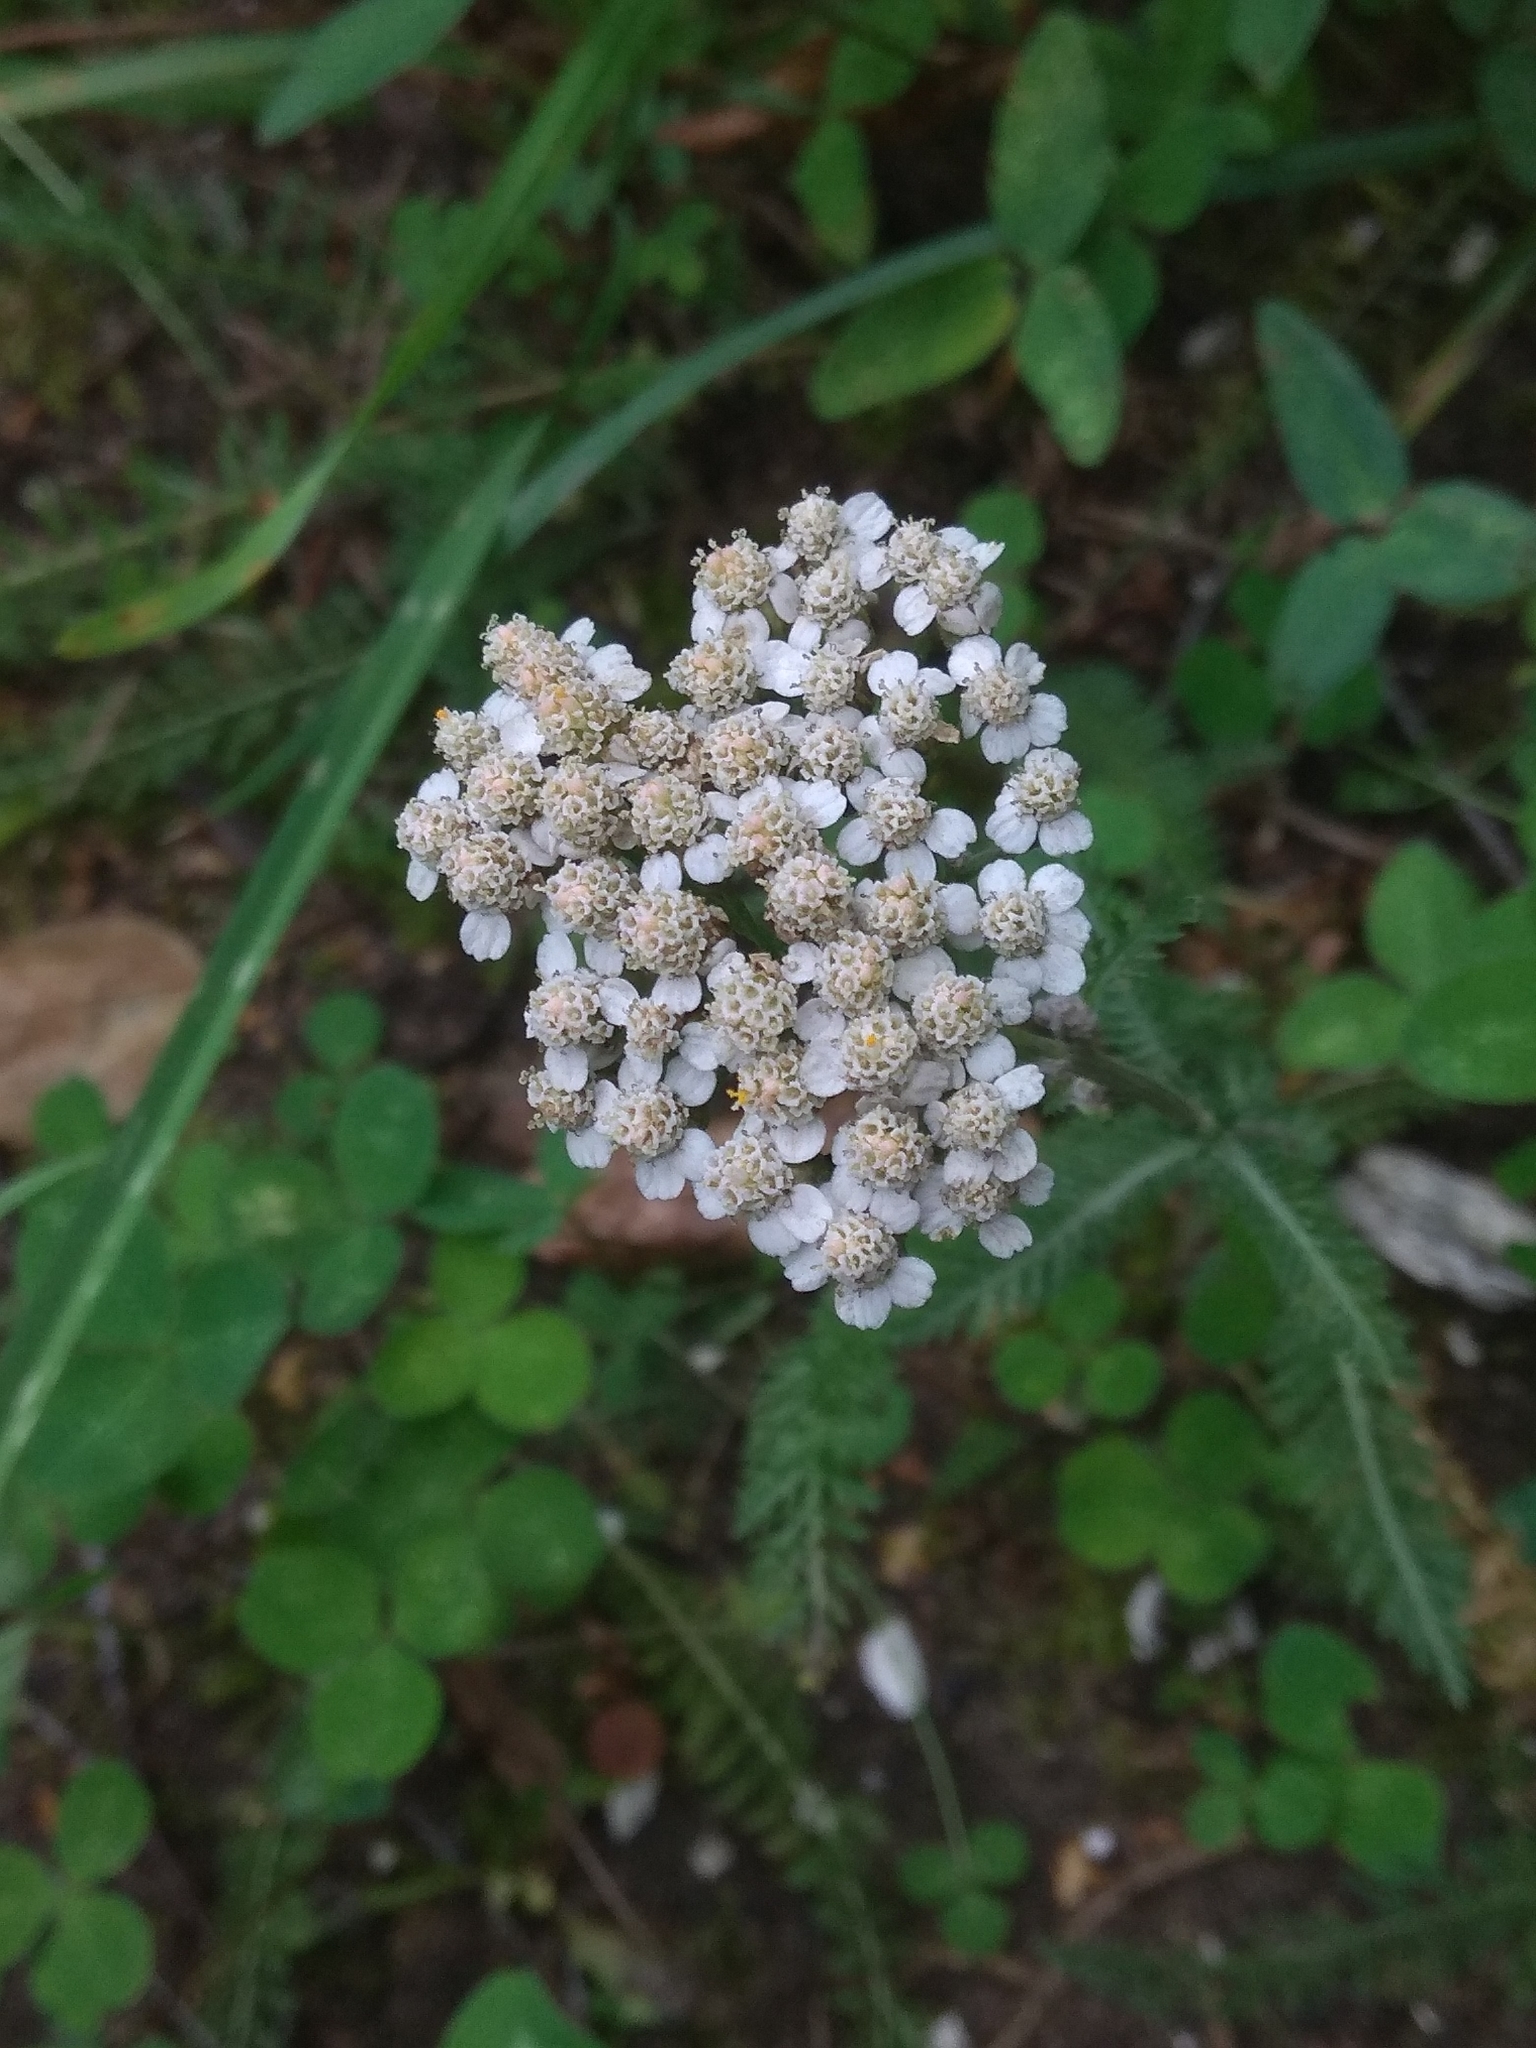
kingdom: Plantae
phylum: Tracheophyta
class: Magnoliopsida
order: Asterales
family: Asteraceae
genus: Achillea
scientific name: Achillea millefolium
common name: Yarrow
